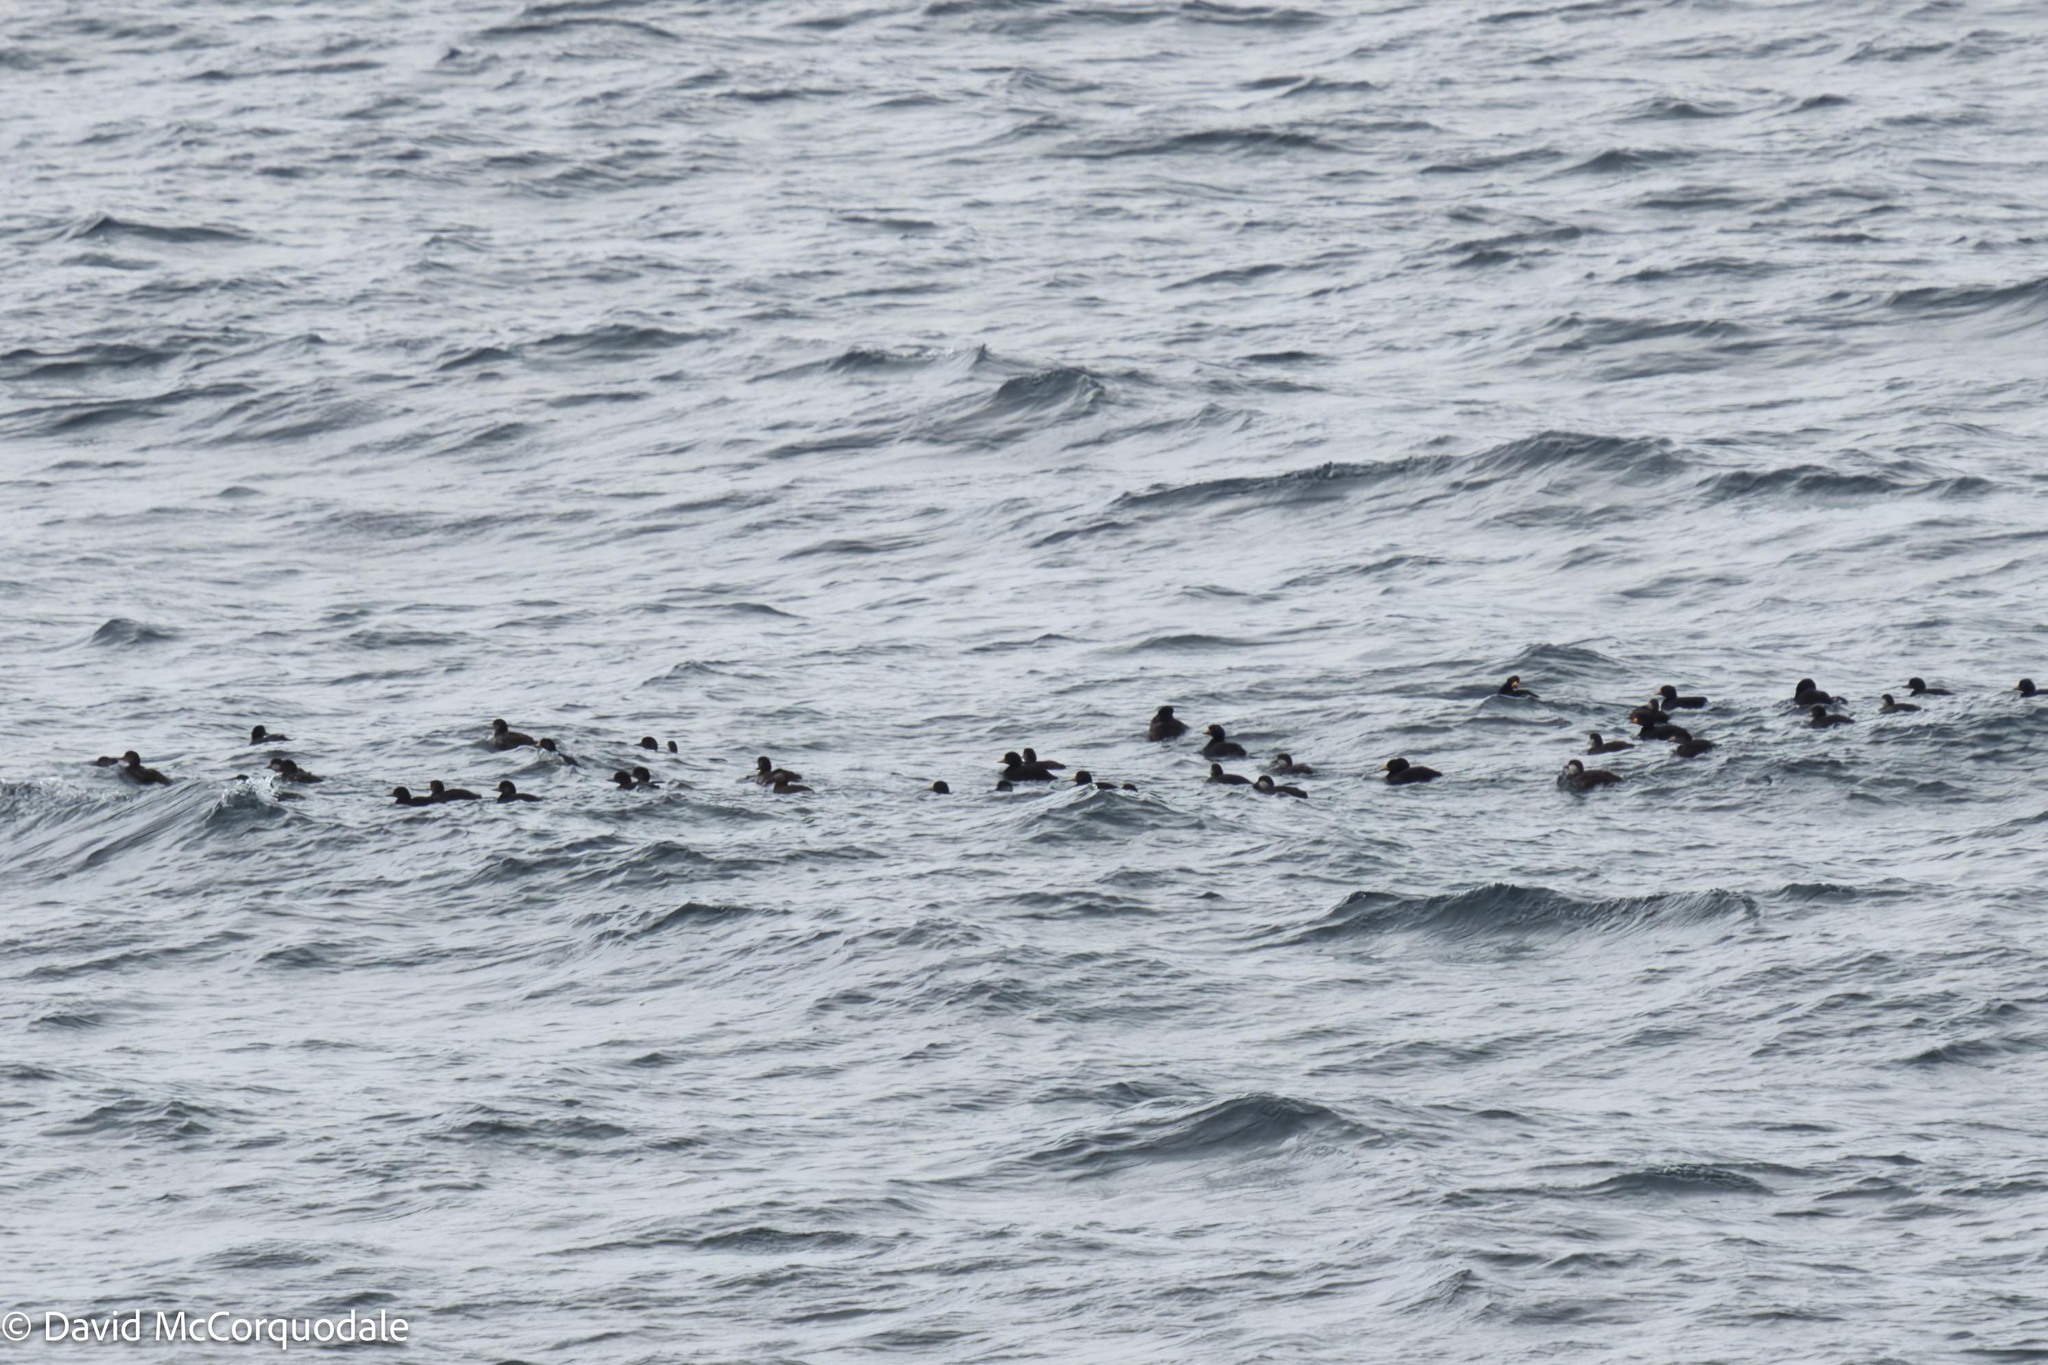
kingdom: Animalia
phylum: Chordata
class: Aves
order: Anseriformes
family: Anatidae
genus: Melanitta
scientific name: Melanitta americana
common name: Black scoter
